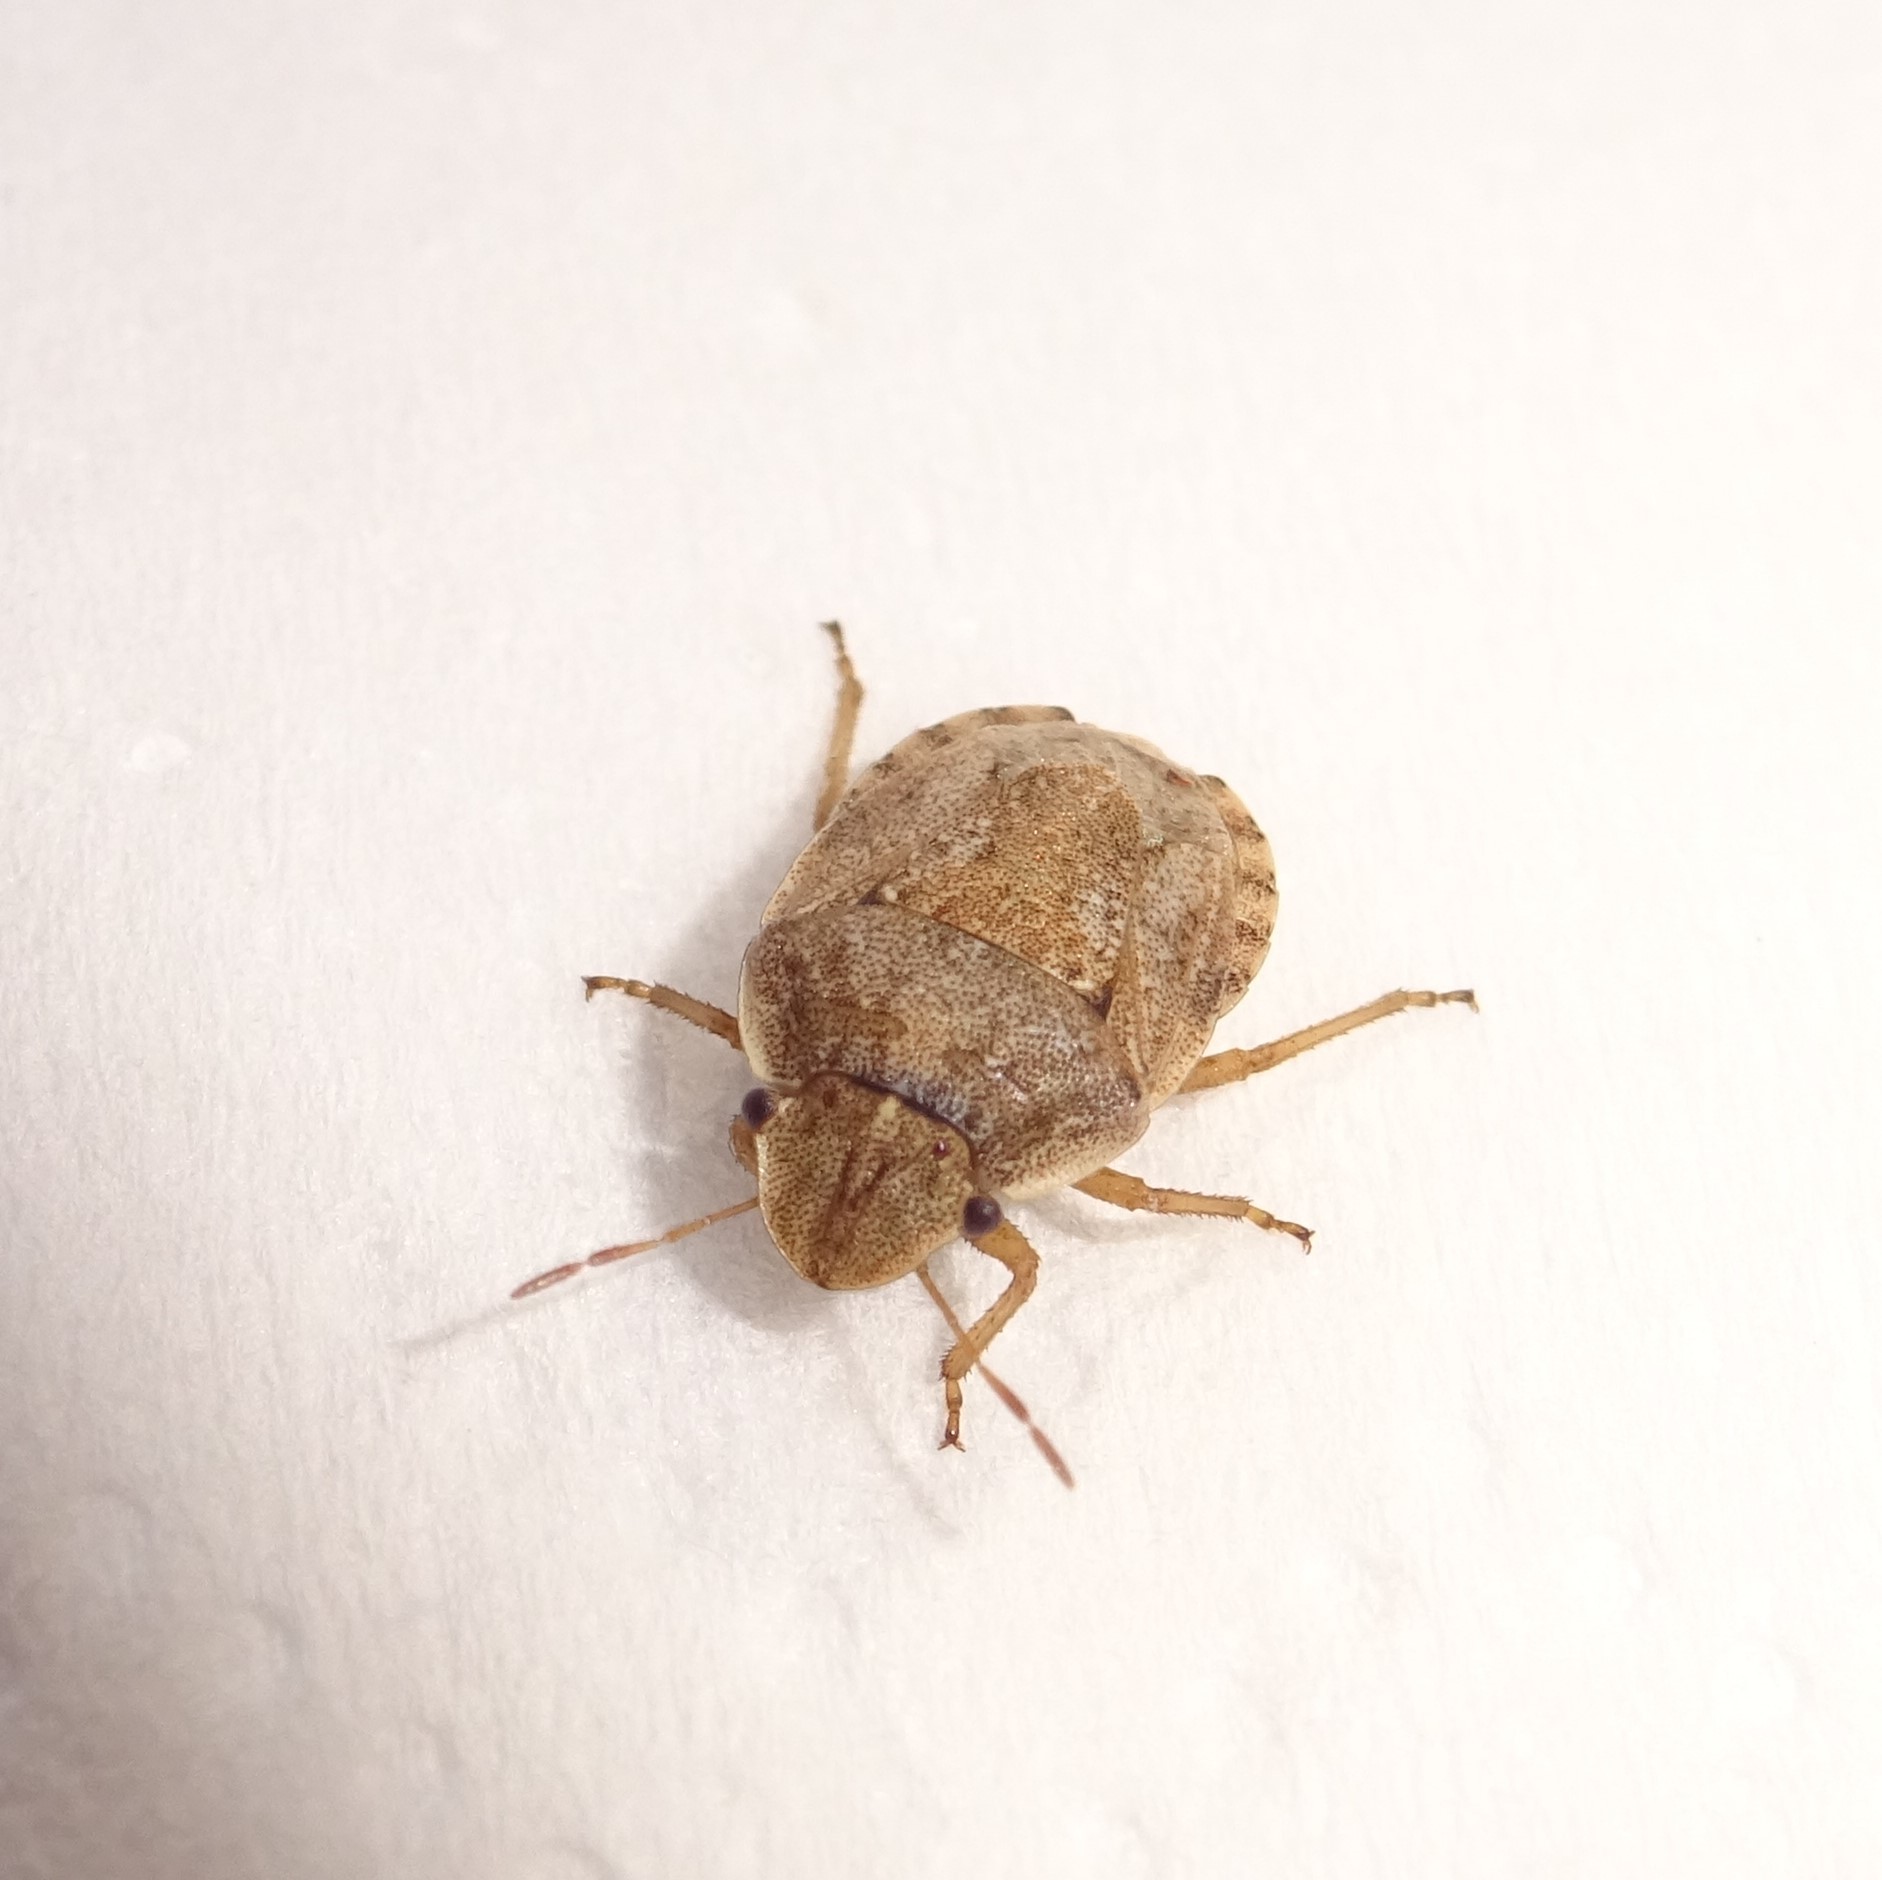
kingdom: Animalia
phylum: Arthropoda
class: Insecta
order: Hemiptera
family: Pentatomidae
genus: Sciocoris
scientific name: Sciocoris helferi
